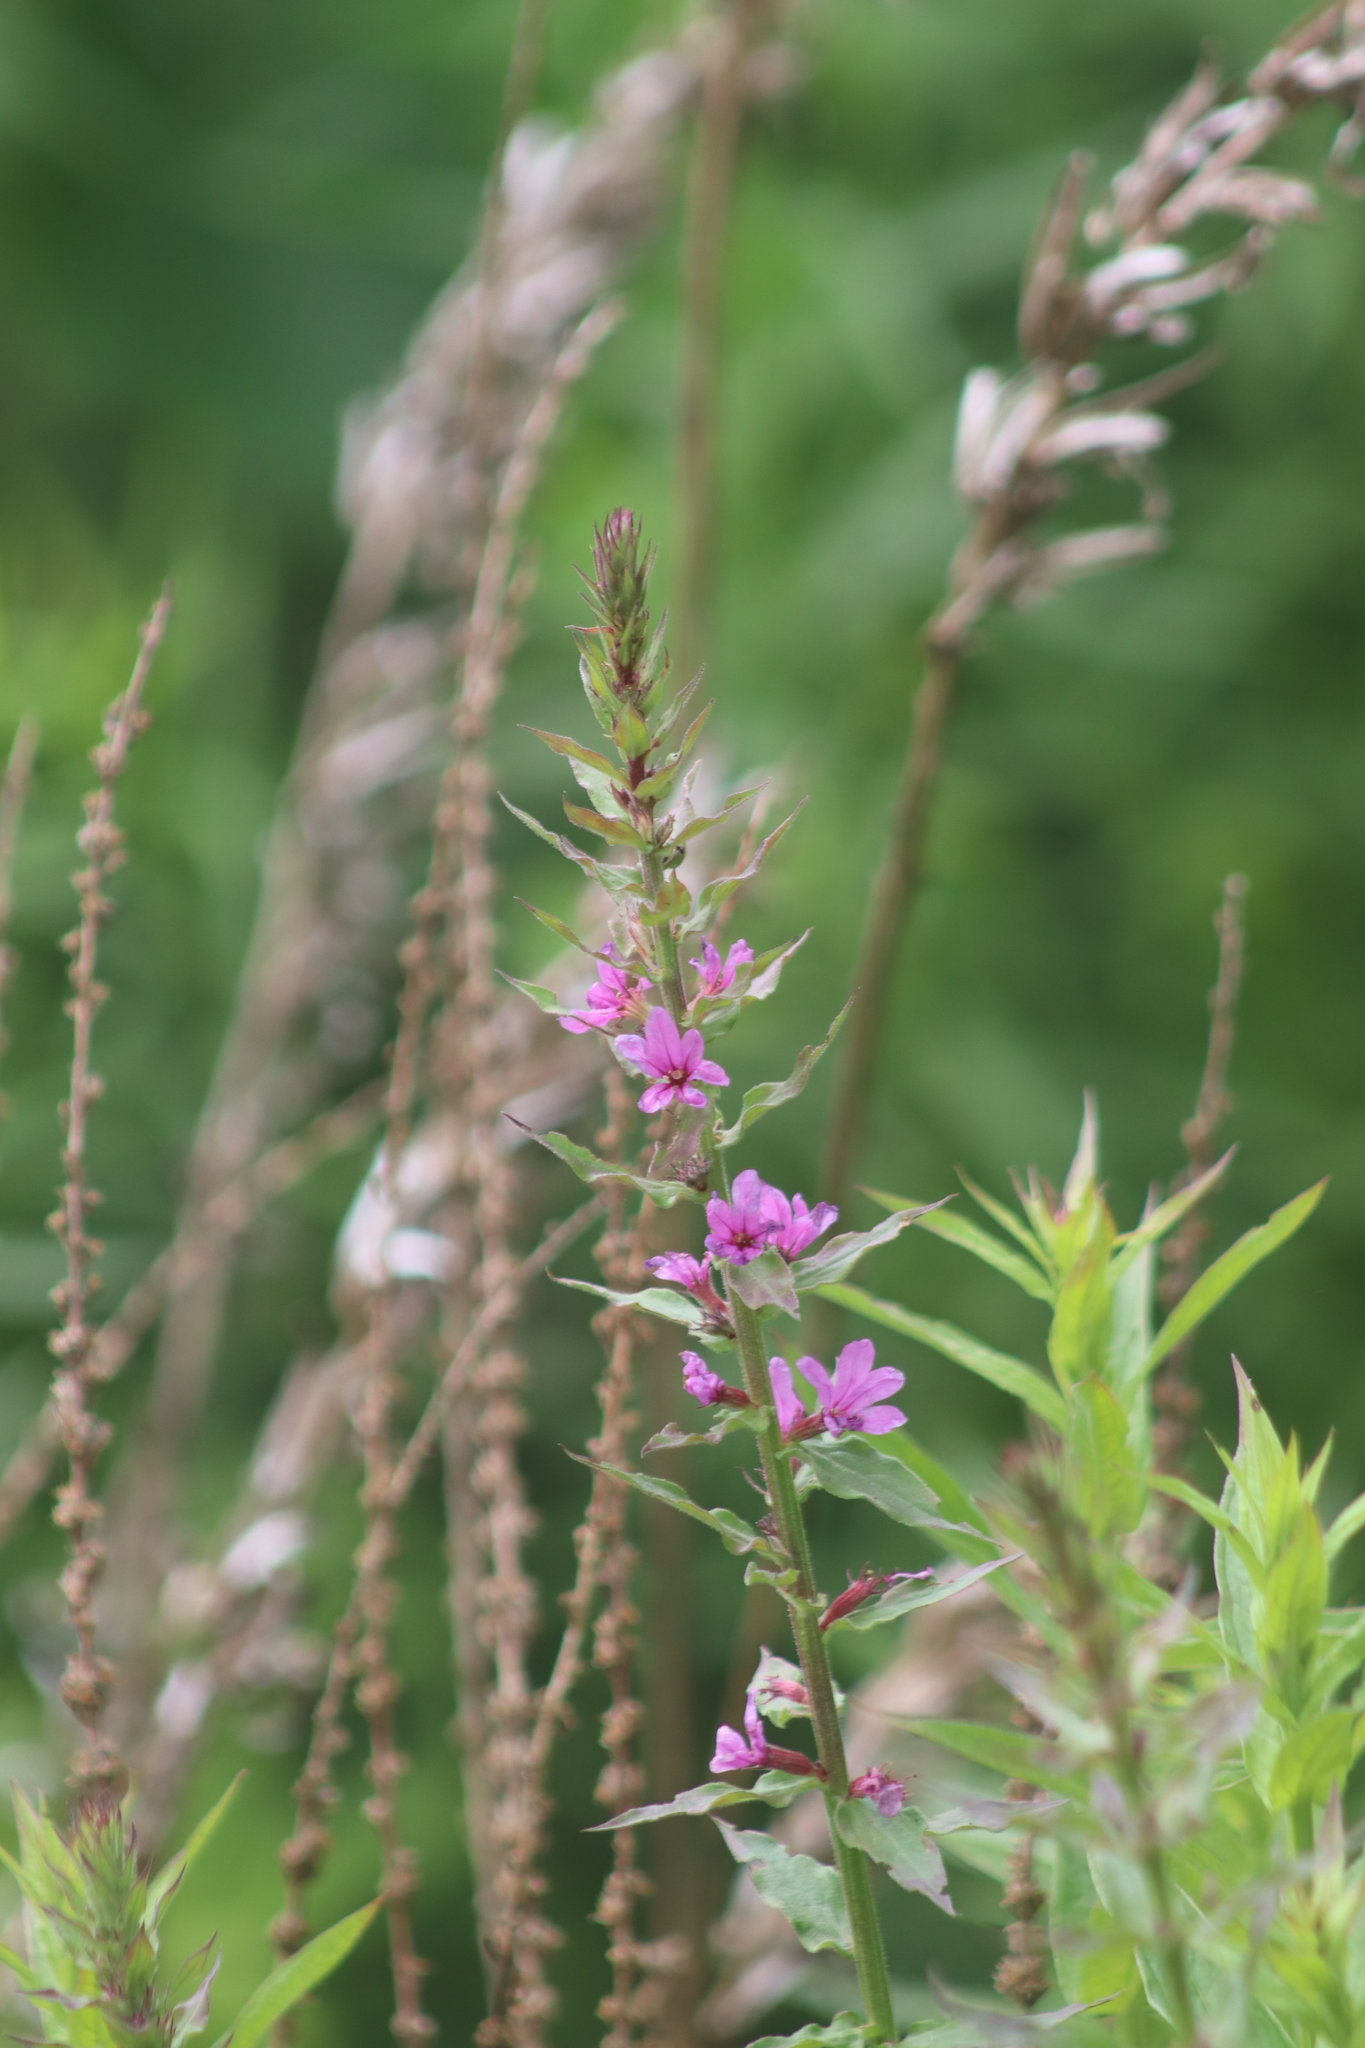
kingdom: Plantae
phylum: Tracheophyta
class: Magnoliopsida
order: Myrtales
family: Lythraceae
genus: Lythrum
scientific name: Lythrum salicaria
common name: Purple loosestrife
